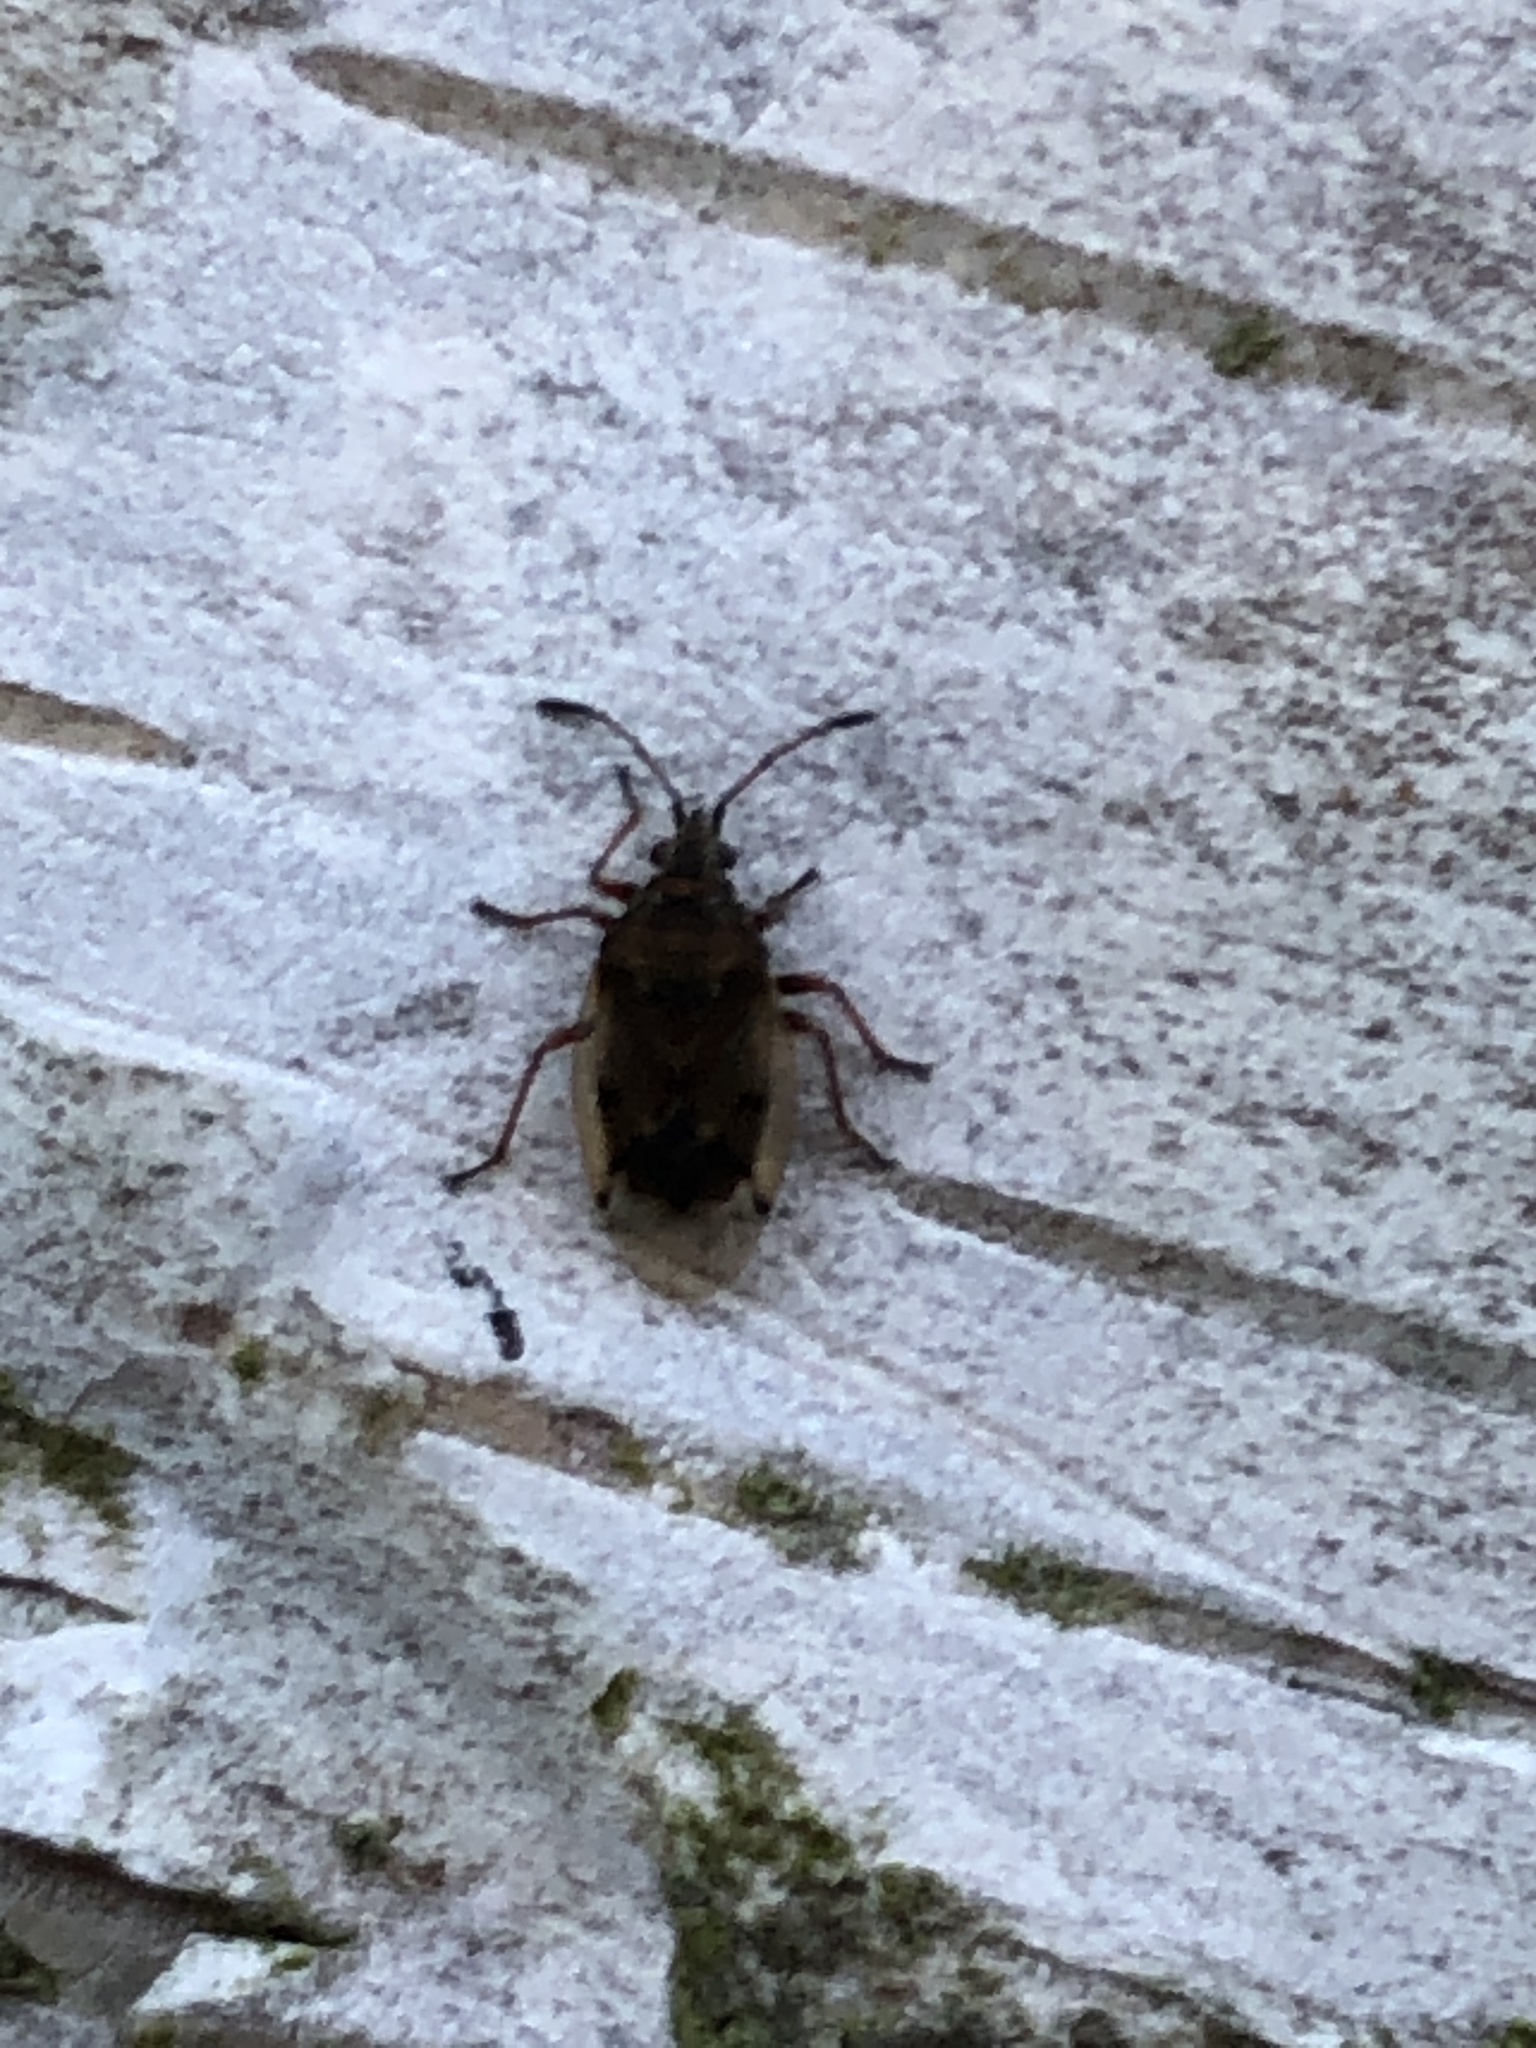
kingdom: Animalia
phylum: Arthropoda
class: Insecta
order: Hemiptera
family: Lygaeidae
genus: Kleidocerys
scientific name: Kleidocerys resedae
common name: Birch catkin bug
